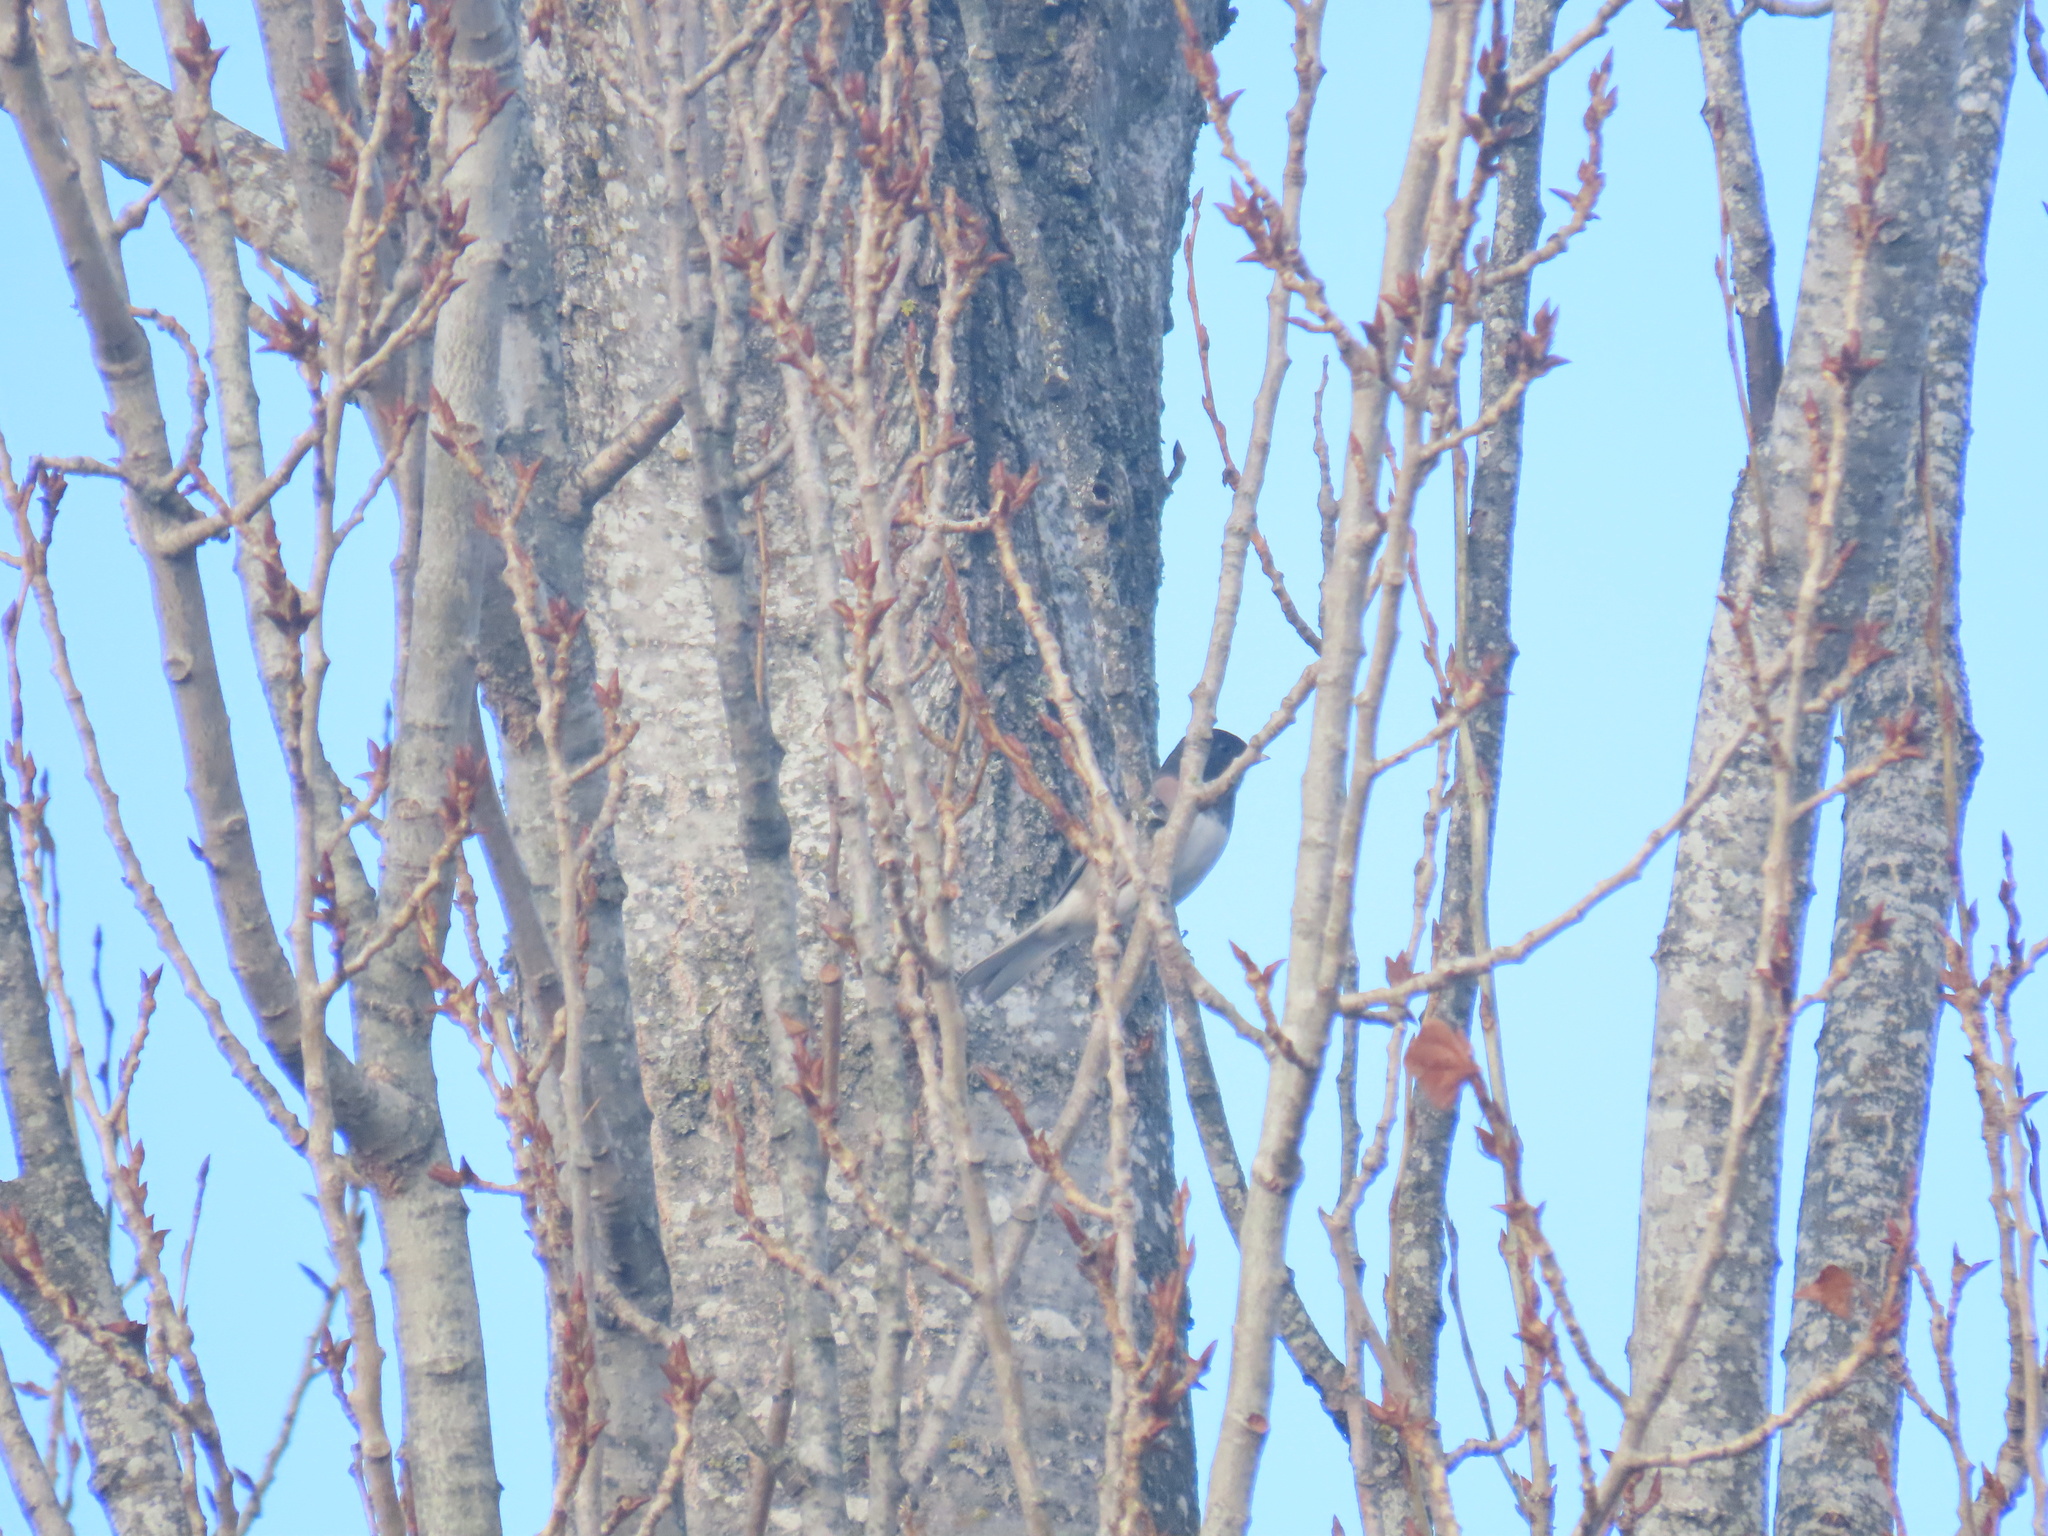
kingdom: Animalia
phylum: Chordata
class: Aves
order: Passeriformes
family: Passerellidae
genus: Junco
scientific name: Junco hyemalis
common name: Dark-eyed junco
